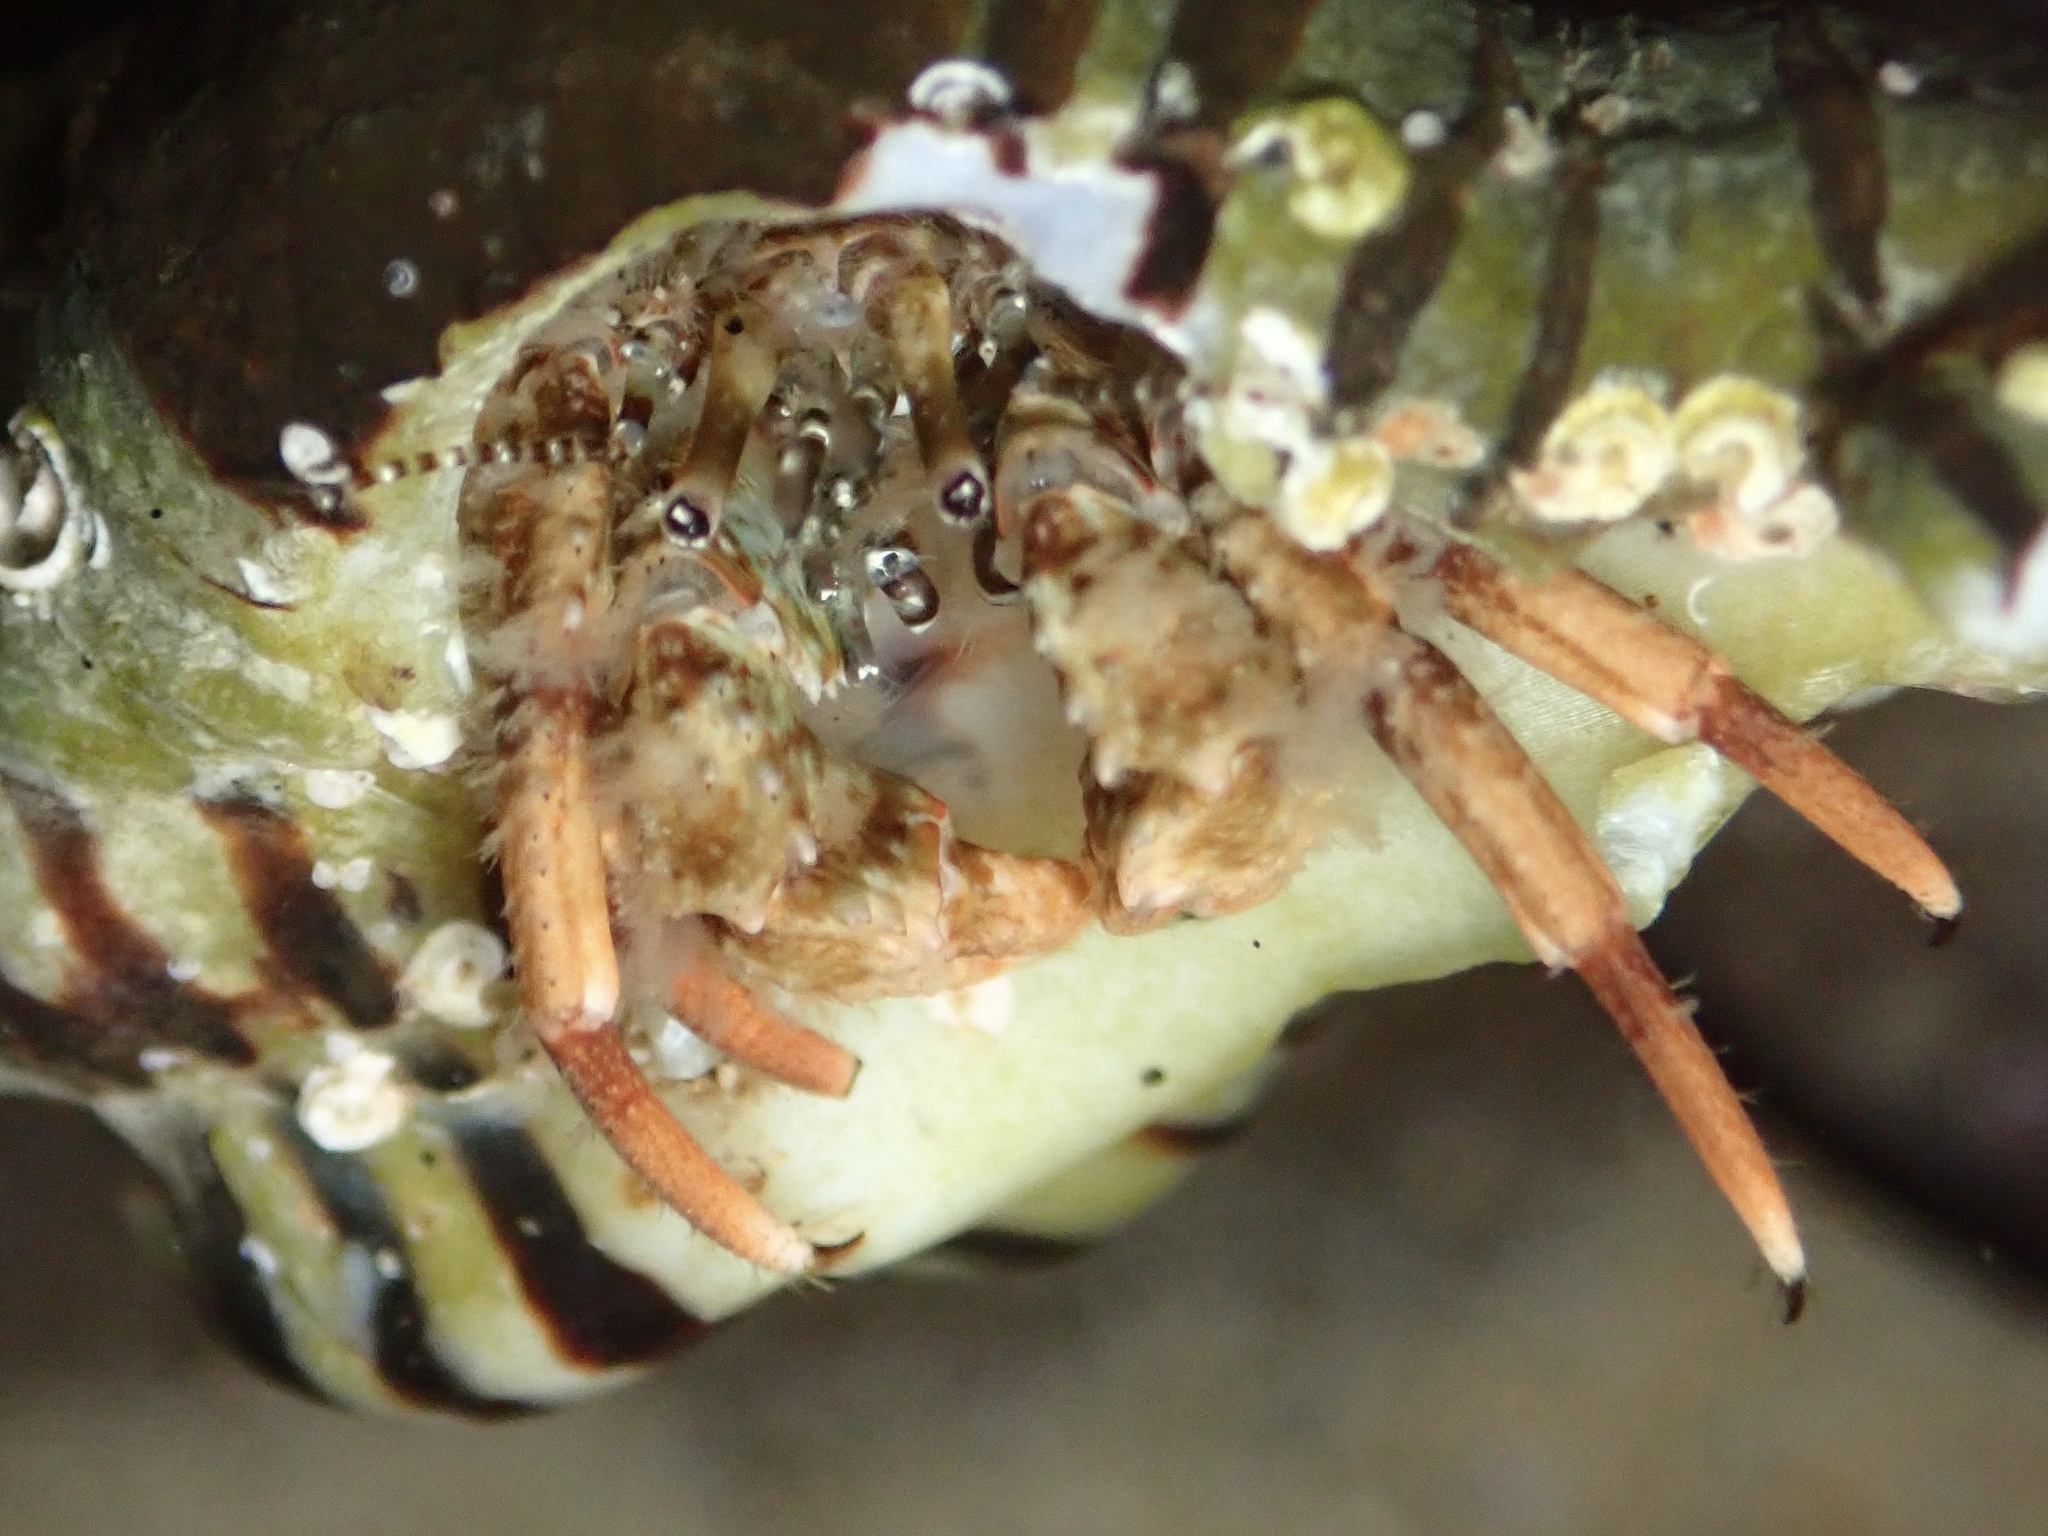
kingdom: Animalia
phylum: Arthropoda
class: Malacostraca
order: Decapoda
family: Diogenidae
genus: Paguristes
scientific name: Paguristes parvus
